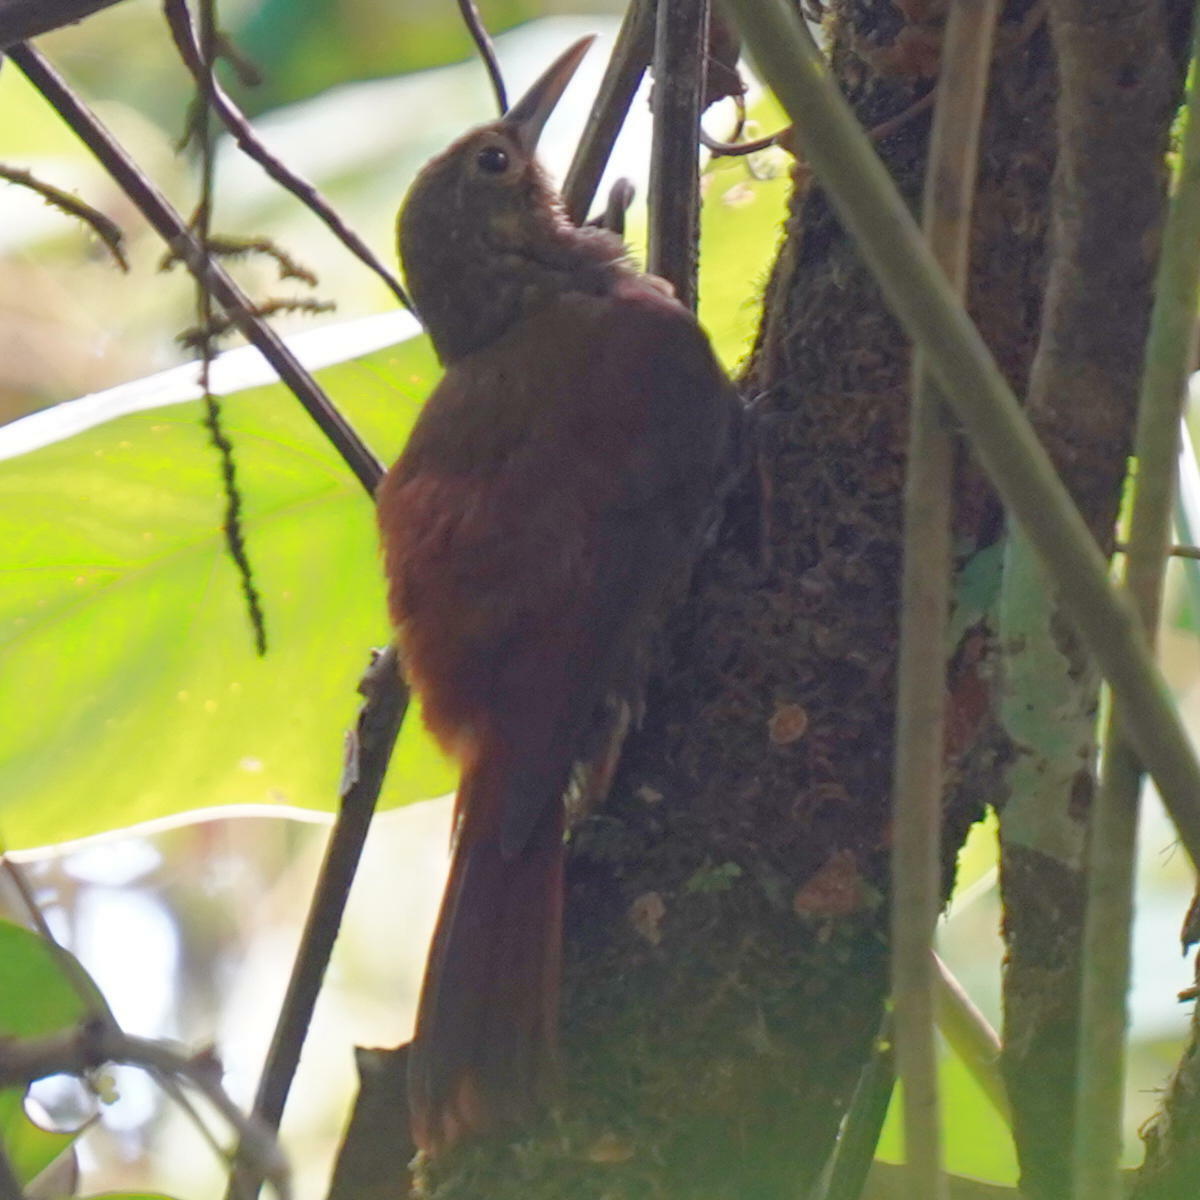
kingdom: Animalia
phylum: Chordata
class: Aves
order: Passeriformes
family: Furnariidae
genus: Xiphorhynchus
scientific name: Xiphorhynchus erythropygius
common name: Spotted woodcreeper
